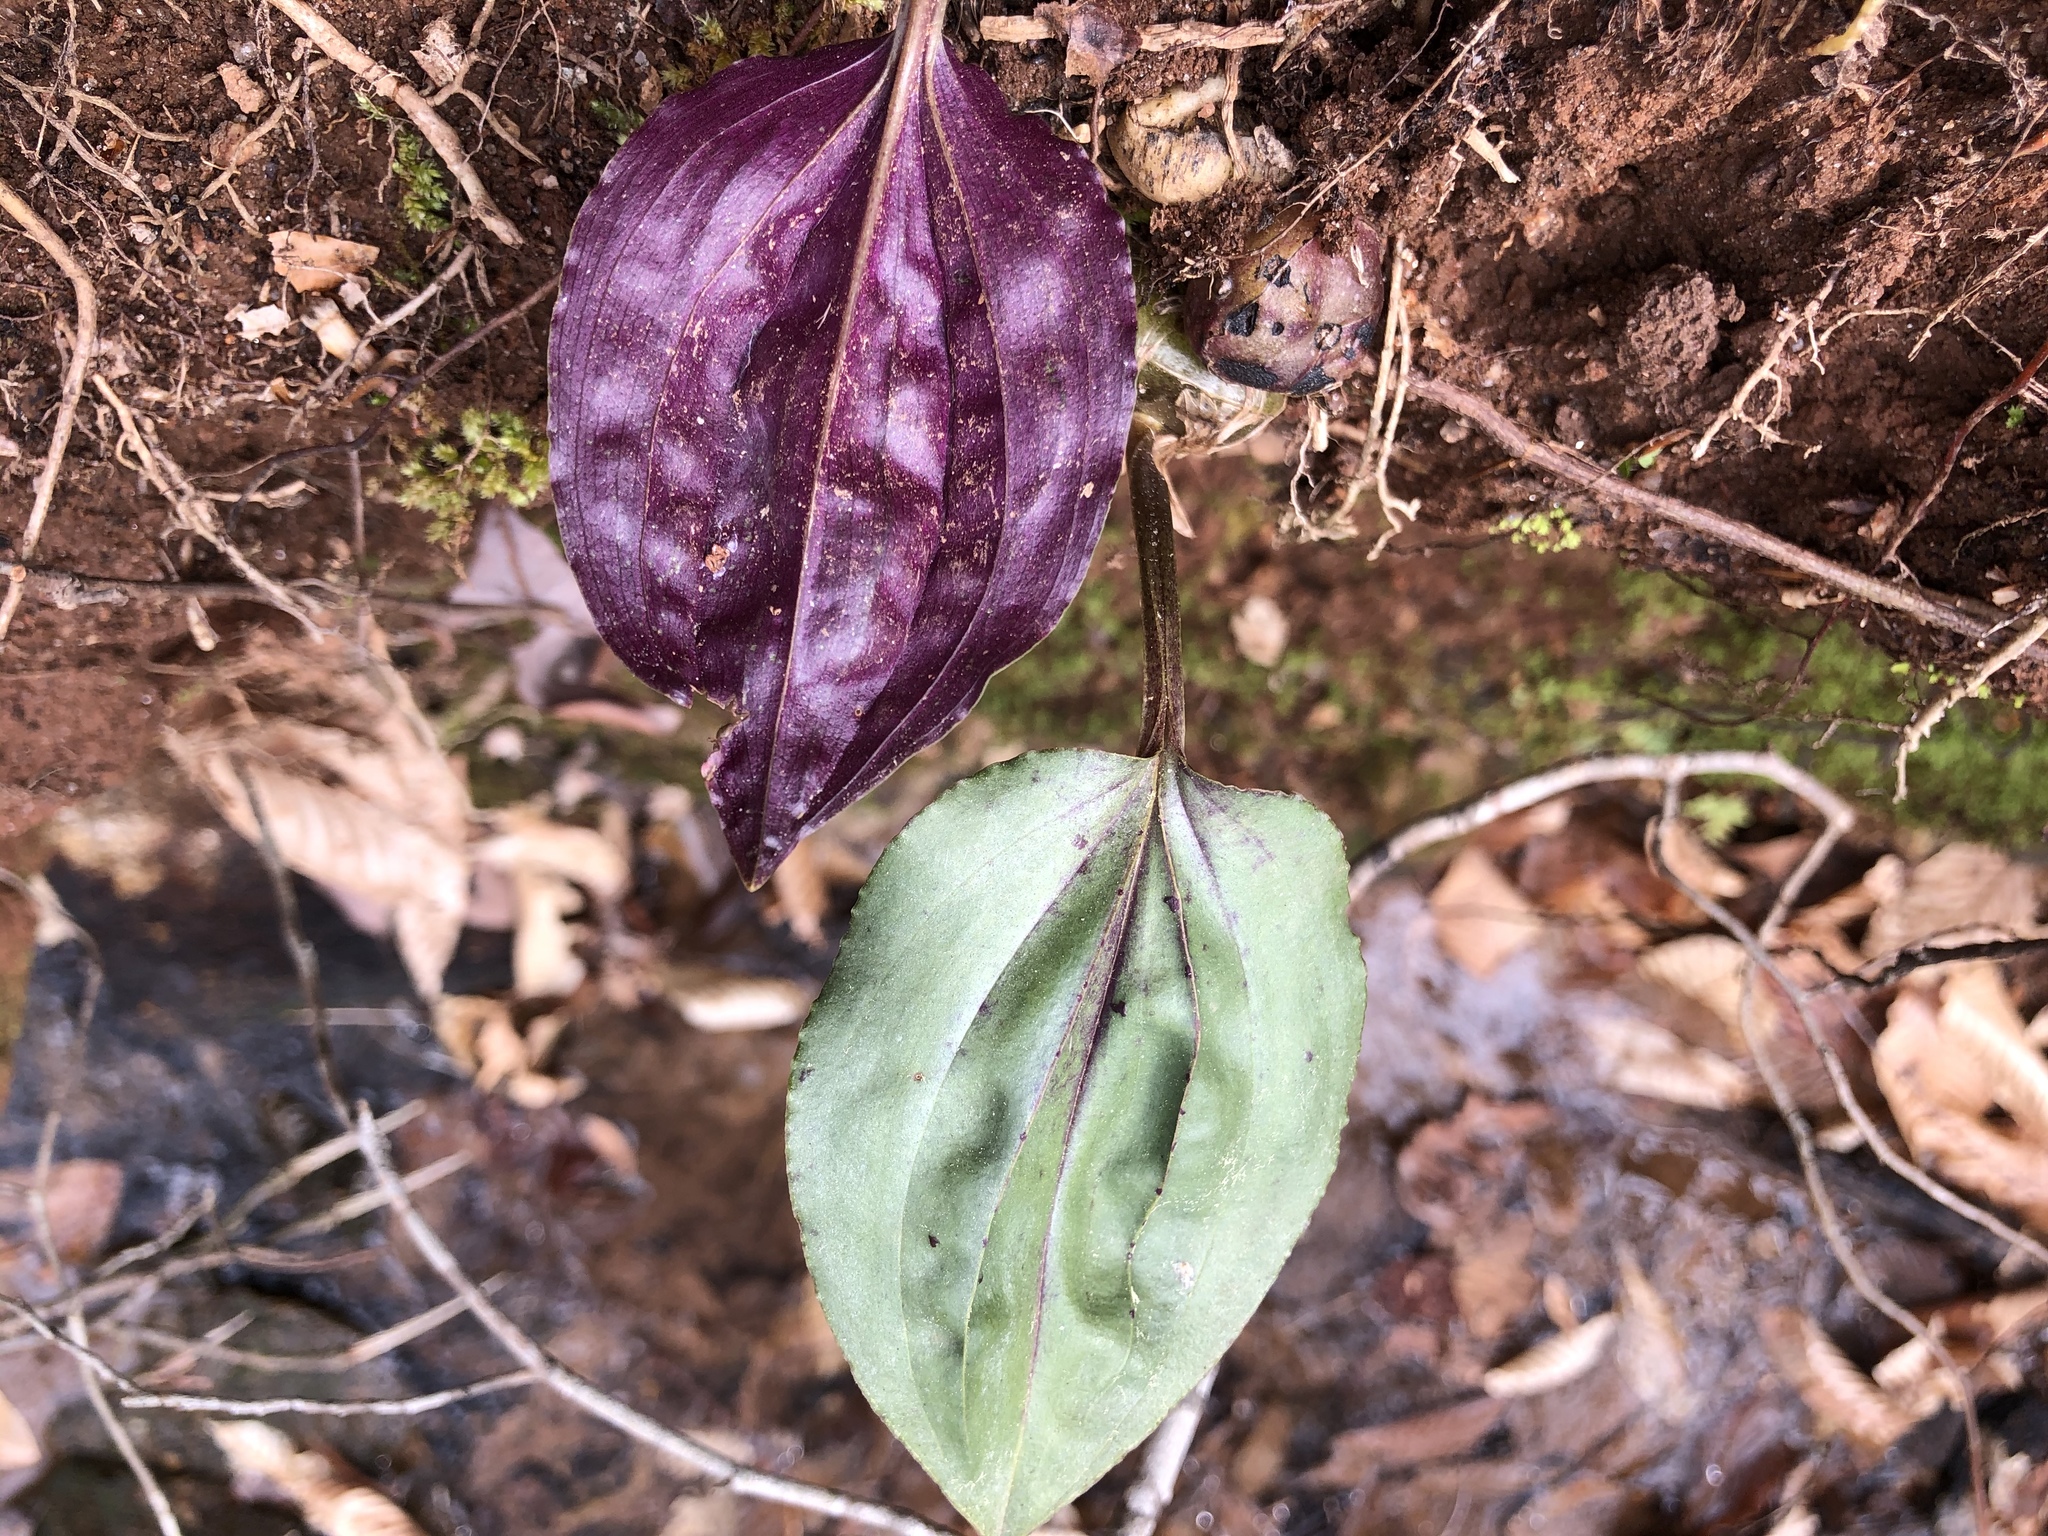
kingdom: Plantae
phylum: Tracheophyta
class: Liliopsida
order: Asparagales
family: Orchidaceae
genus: Tipularia
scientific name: Tipularia discolor
